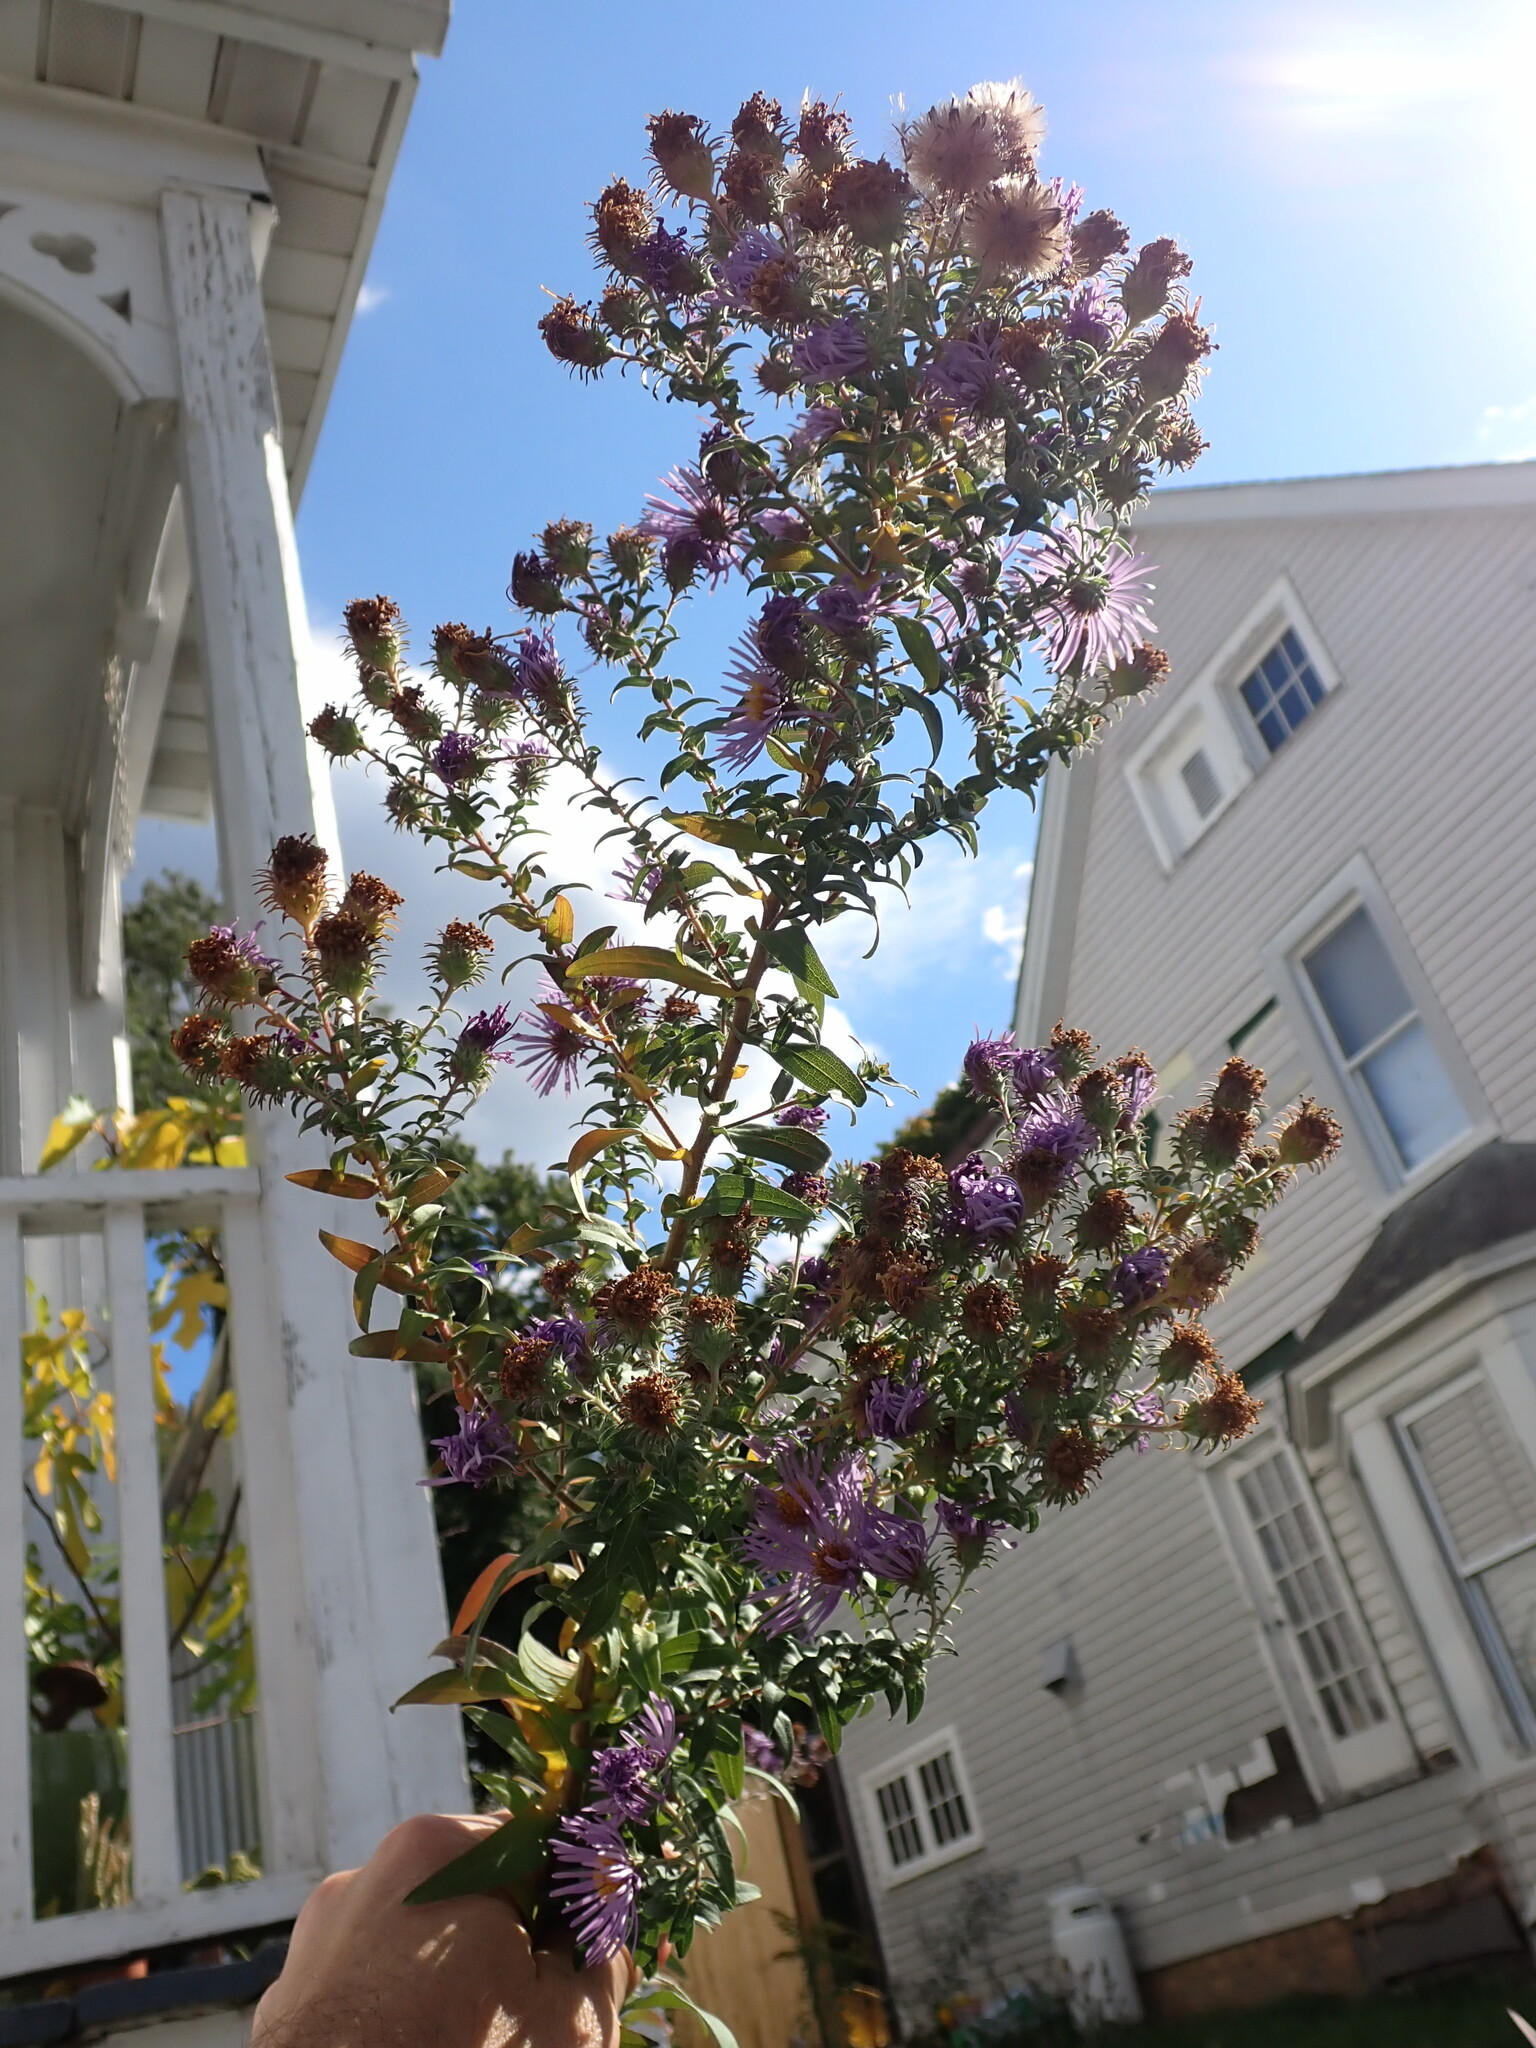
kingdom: Plantae
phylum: Tracheophyta
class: Magnoliopsida
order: Asterales
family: Asteraceae
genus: Symphyotrichum
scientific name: Symphyotrichum novae-angliae
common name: Michaelmas daisy
